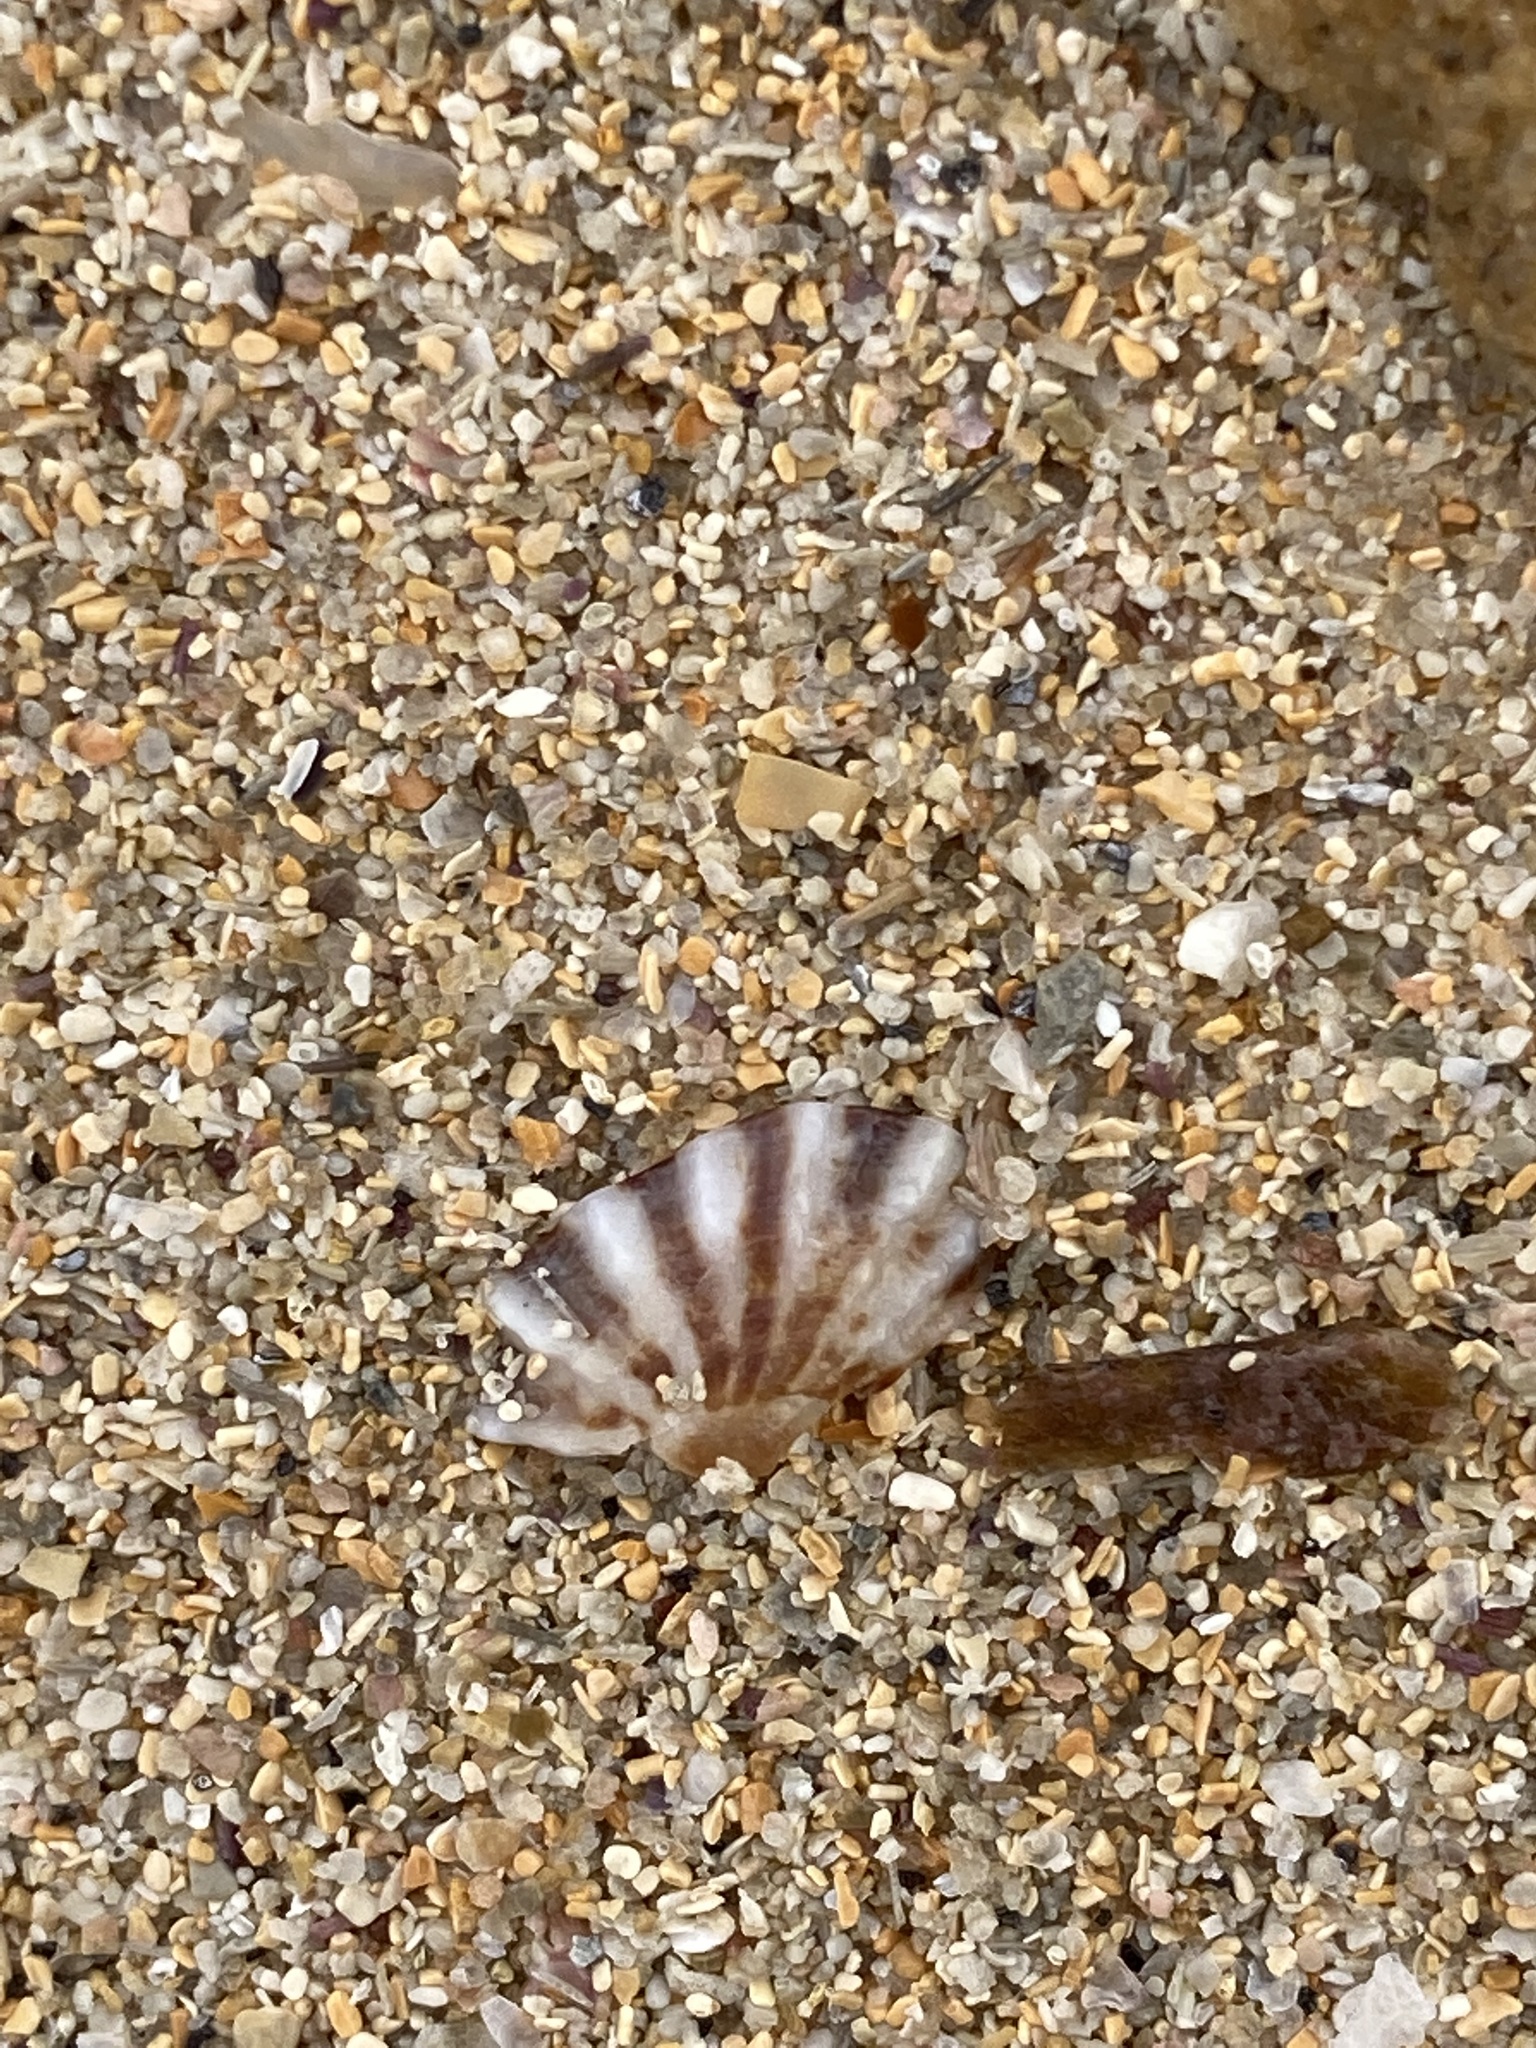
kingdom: Animalia
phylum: Mollusca
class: Gastropoda
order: Siphonariida
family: Siphonariidae
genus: Siphonaria
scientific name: Siphonaria denticulata
